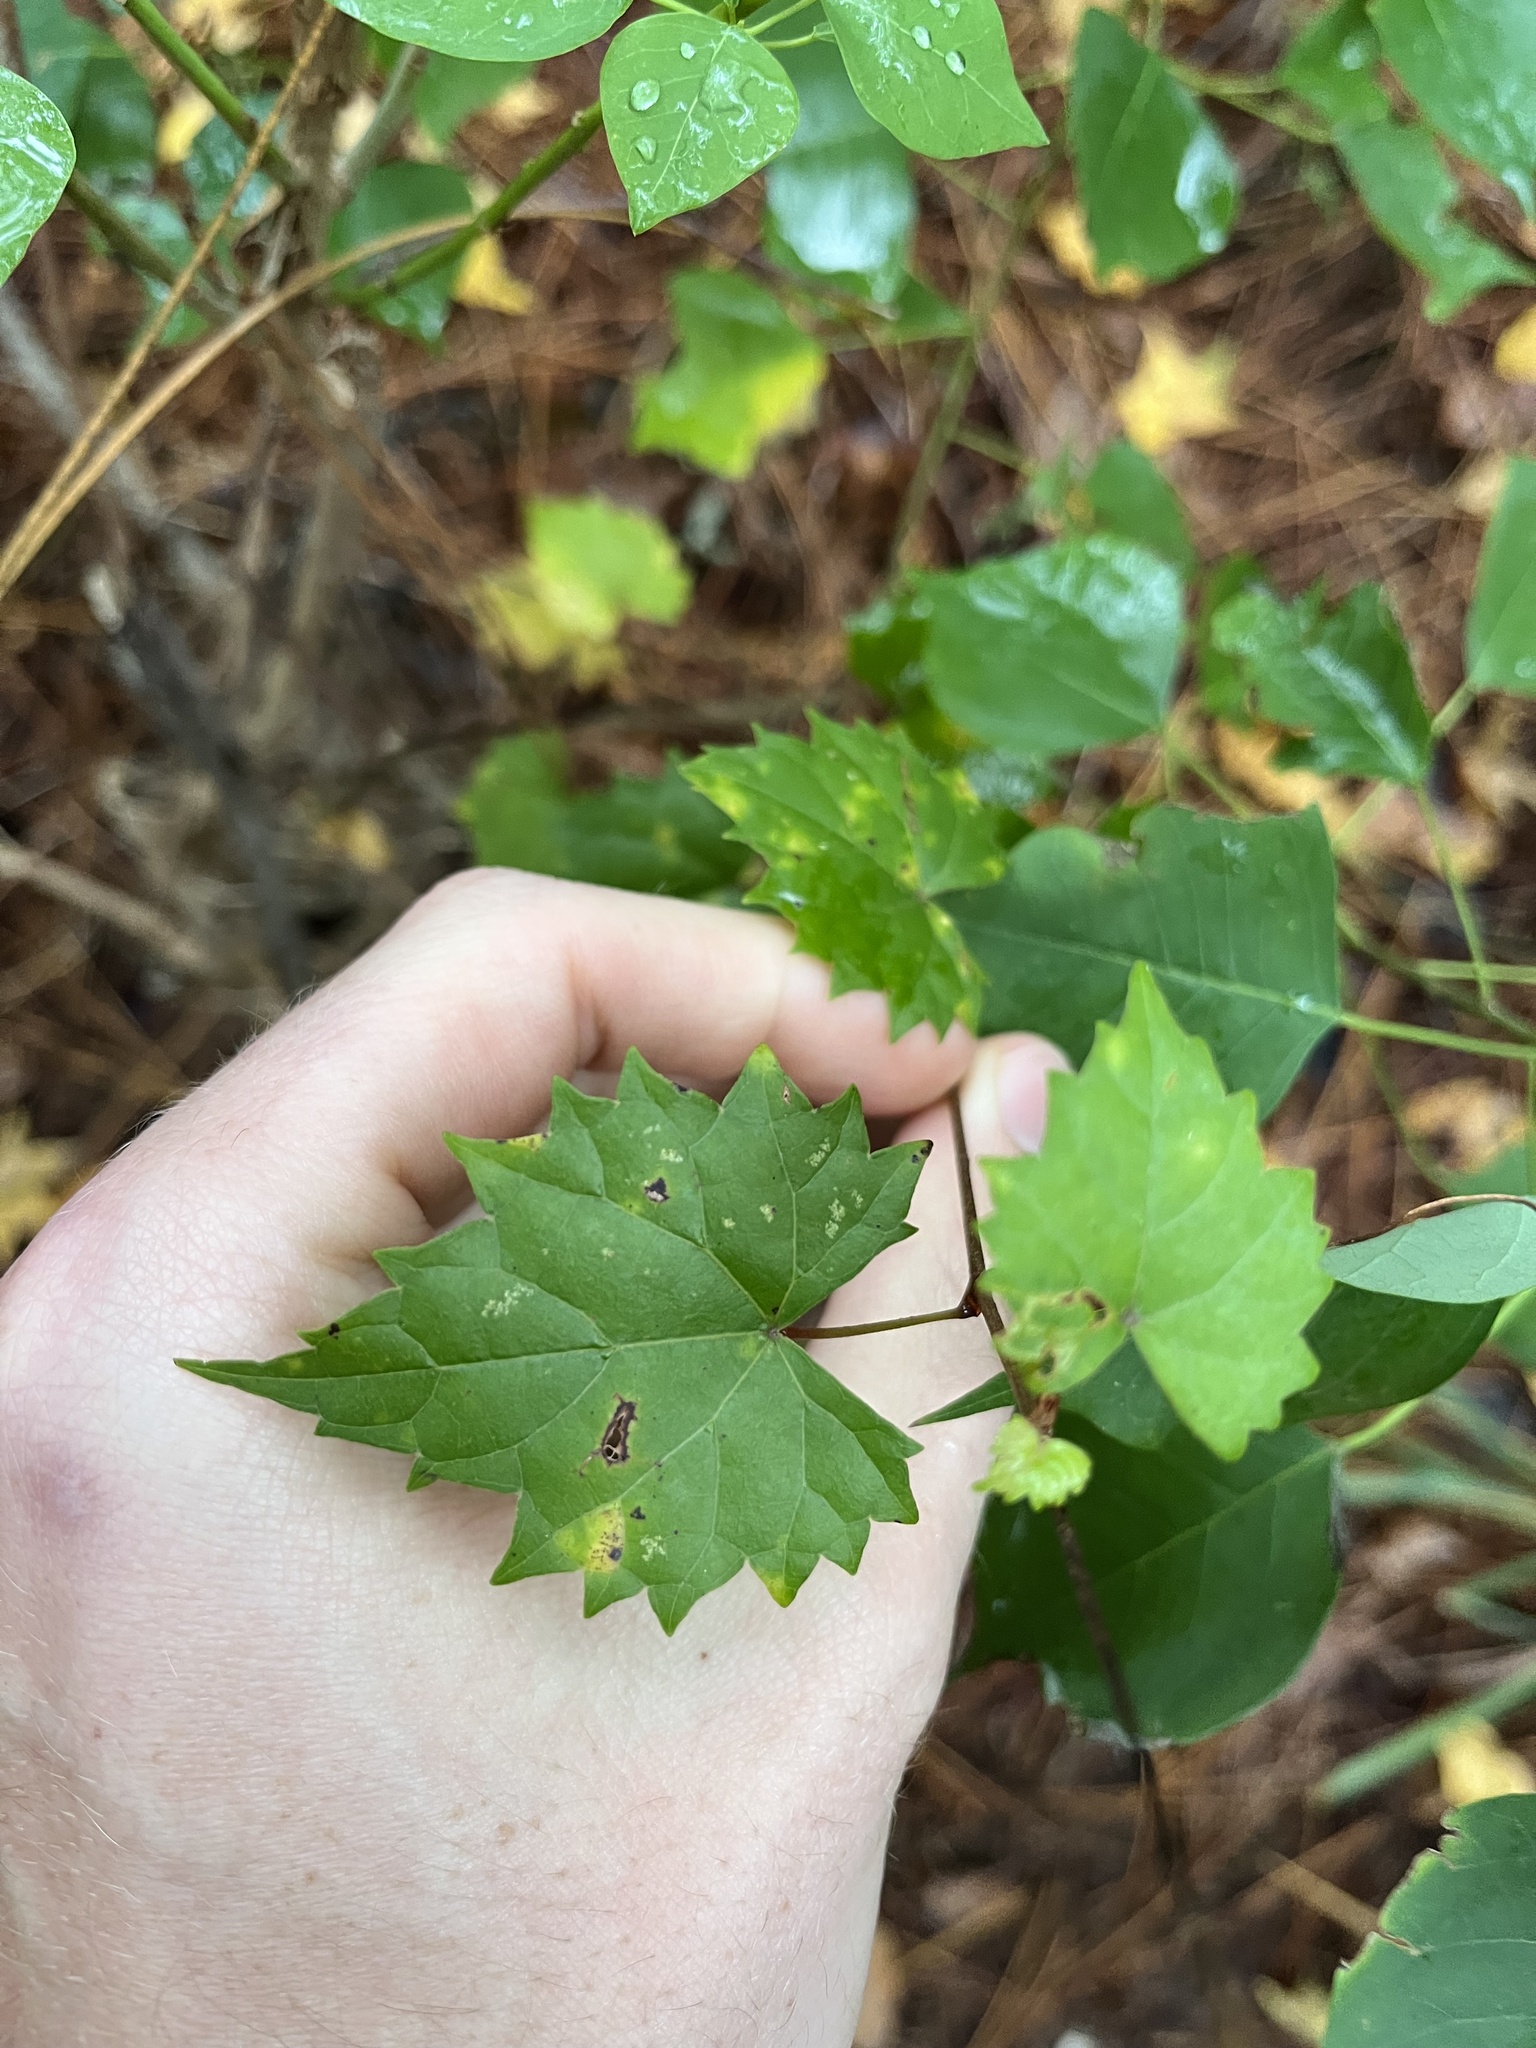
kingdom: Plantae
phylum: Tracheophyta
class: Magnoliopsida
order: Vitales
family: Vitaceae
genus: Vitis
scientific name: Vitis rotundifolia
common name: Muscadine grape
